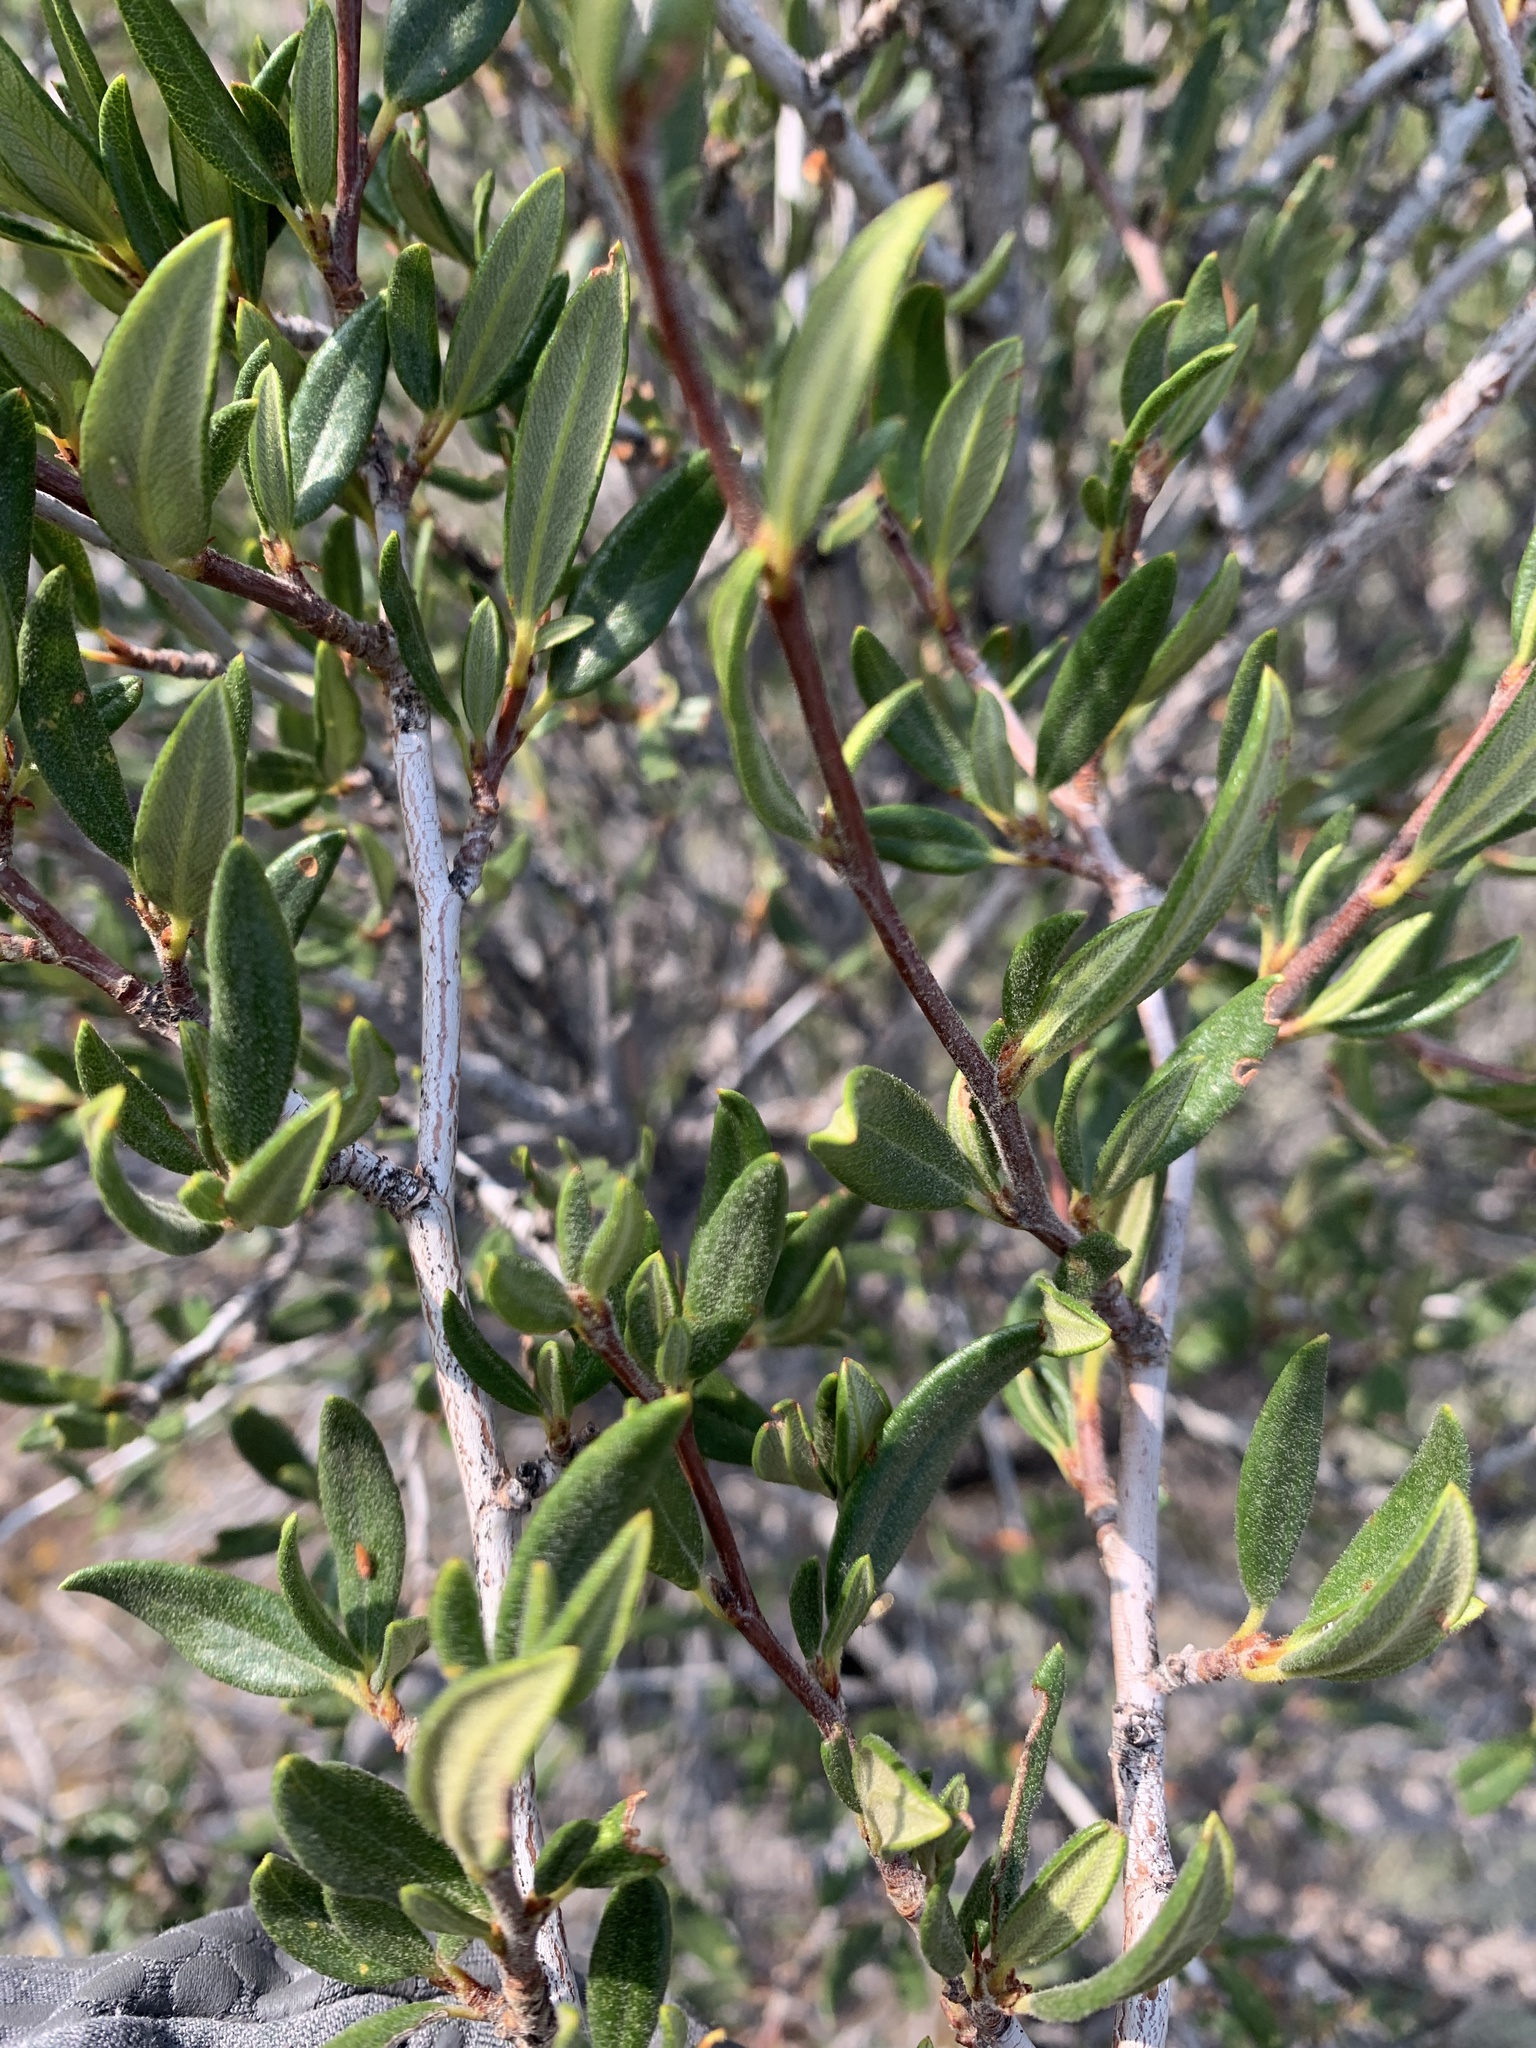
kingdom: Plantae
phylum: Tracheophyta
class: Magnoliopsida
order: Rosales
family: Rosaceae
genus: Cercocarpus
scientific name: Cercocarpus ledifolius
